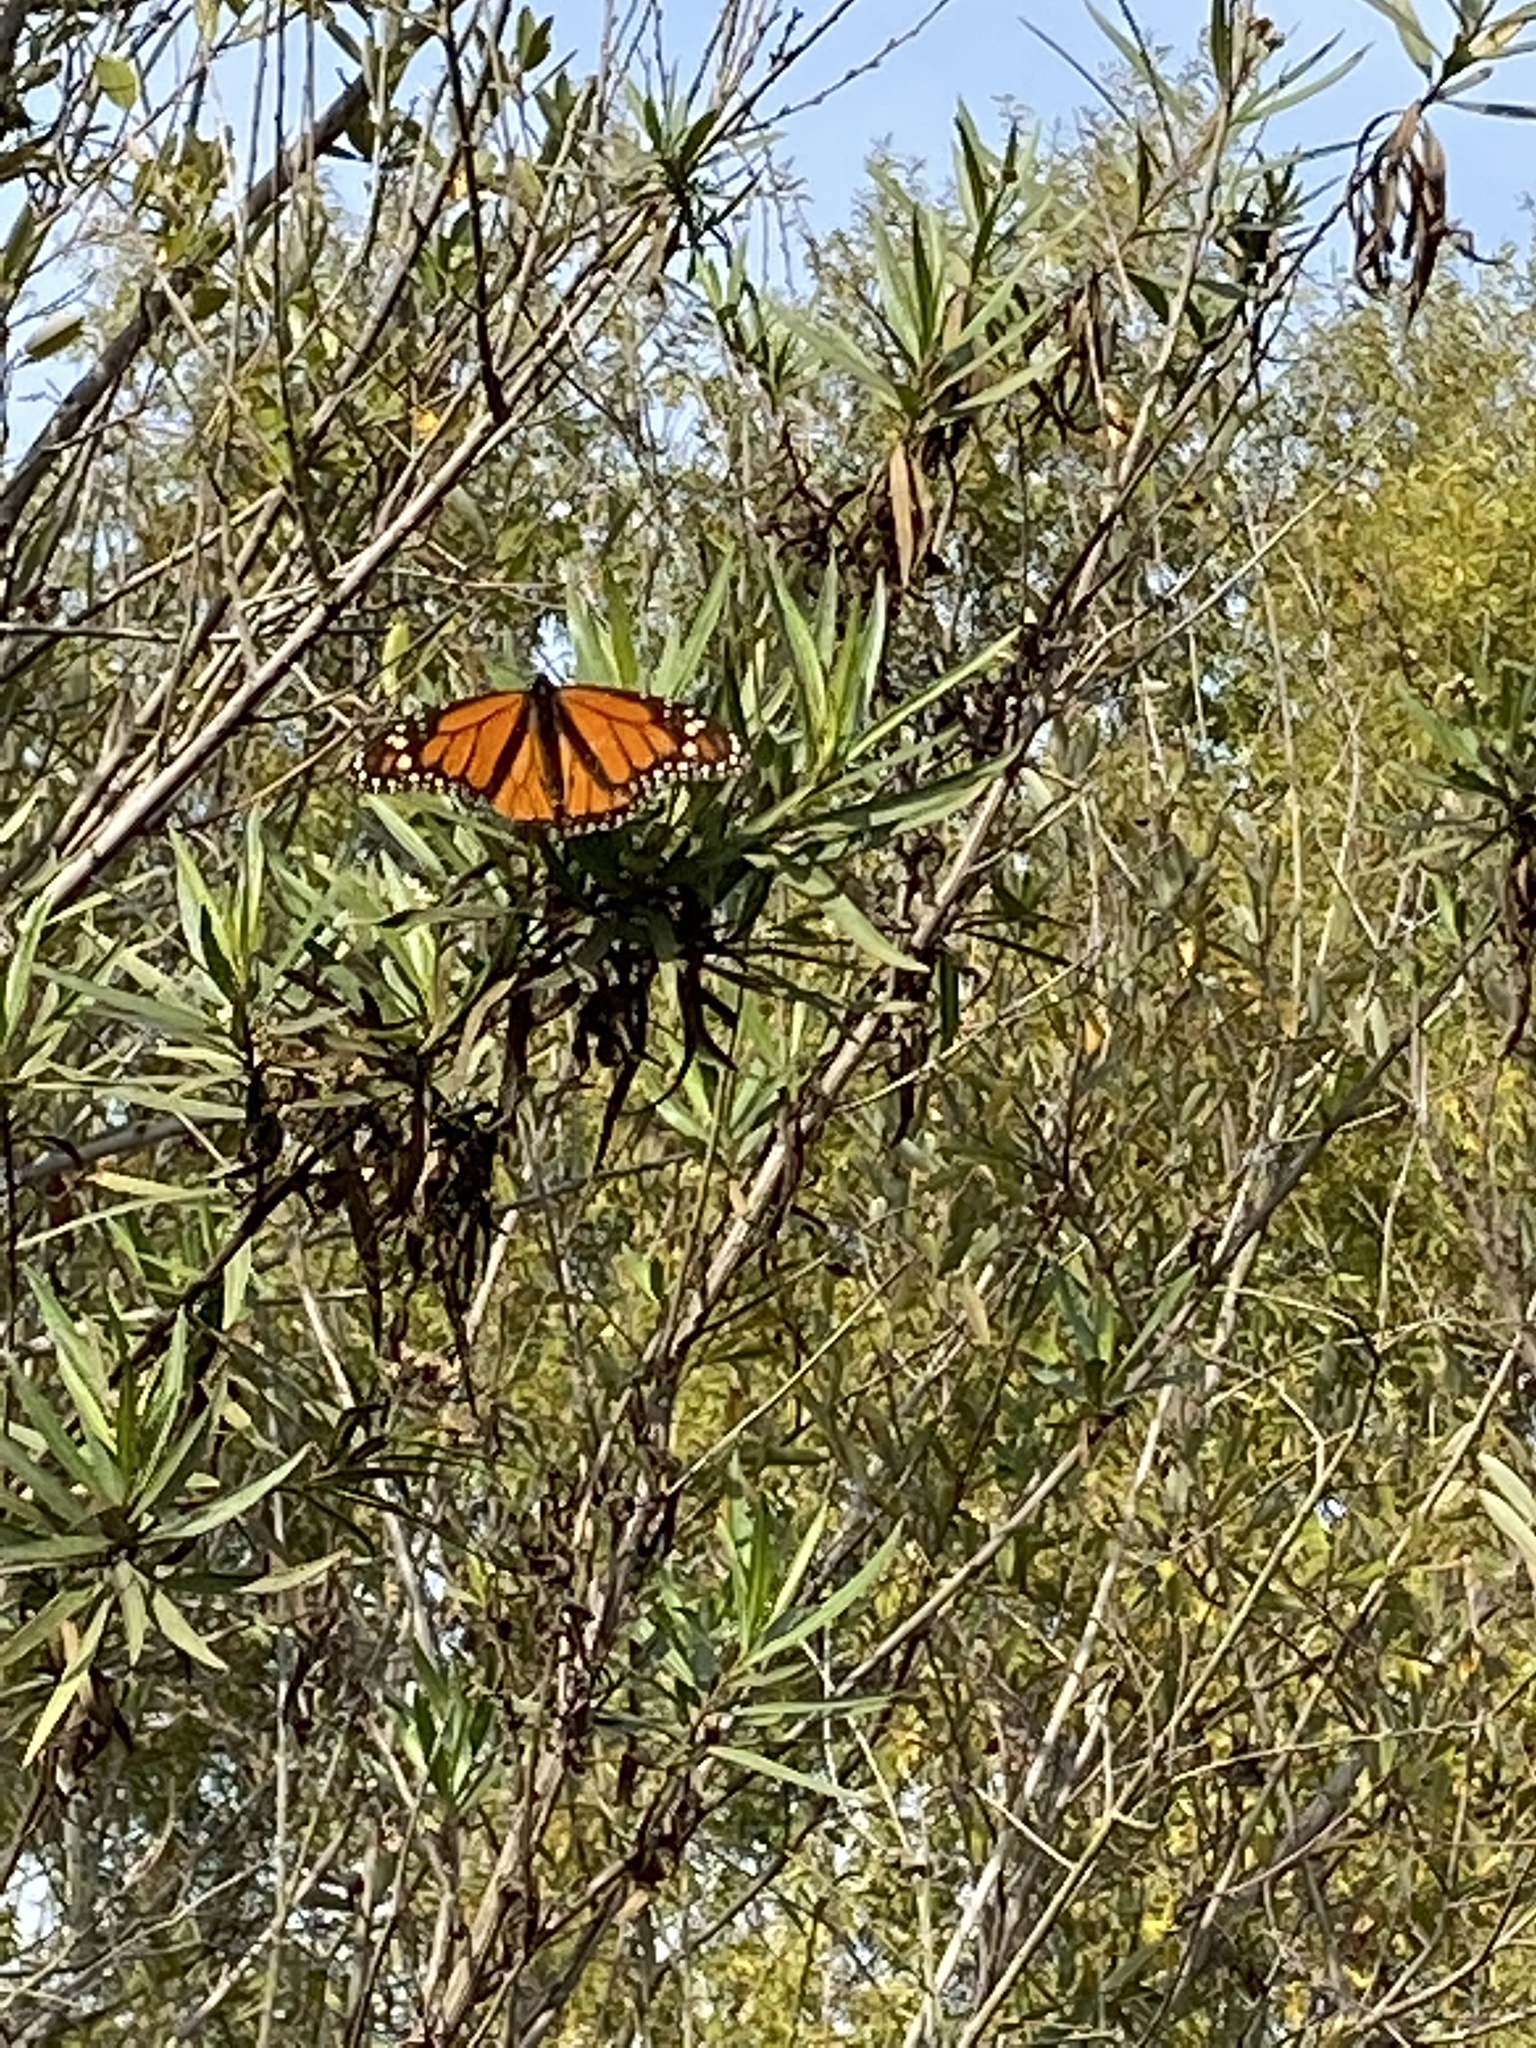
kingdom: Animalia
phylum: Arthropoda
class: Insecta
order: Lepidoptera
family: Nymphalidae
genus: Danaus
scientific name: Danaus plexippus
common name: Monarch
